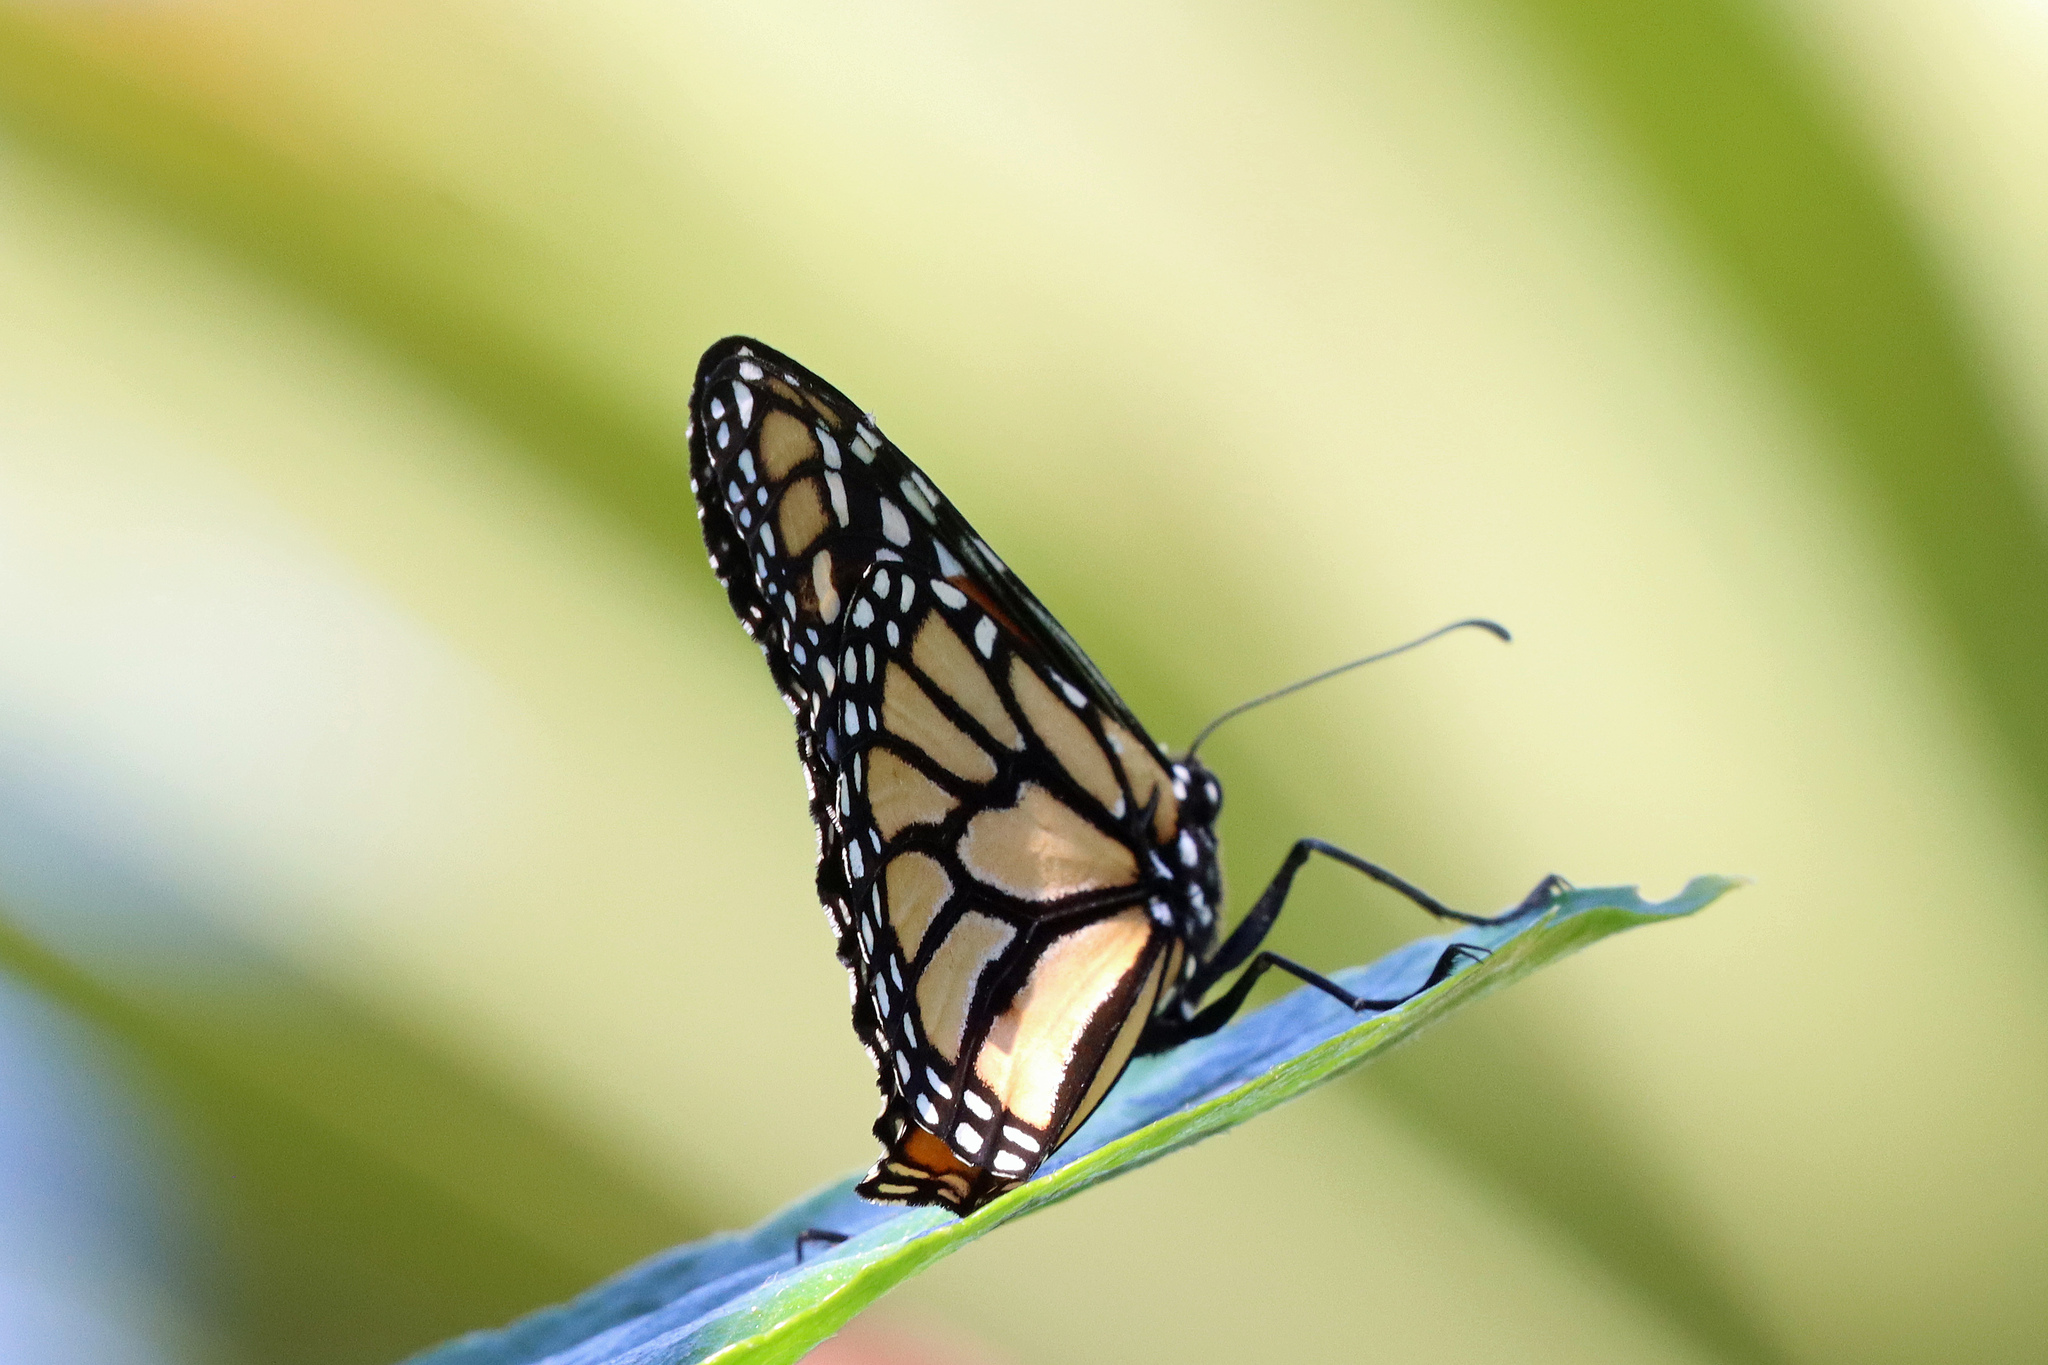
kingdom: Animalia
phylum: Arthropoda
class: Insecta
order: Lepidoptera
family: Nymphalidae
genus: Danaus
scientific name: Danaus plexippus
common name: Monarch
